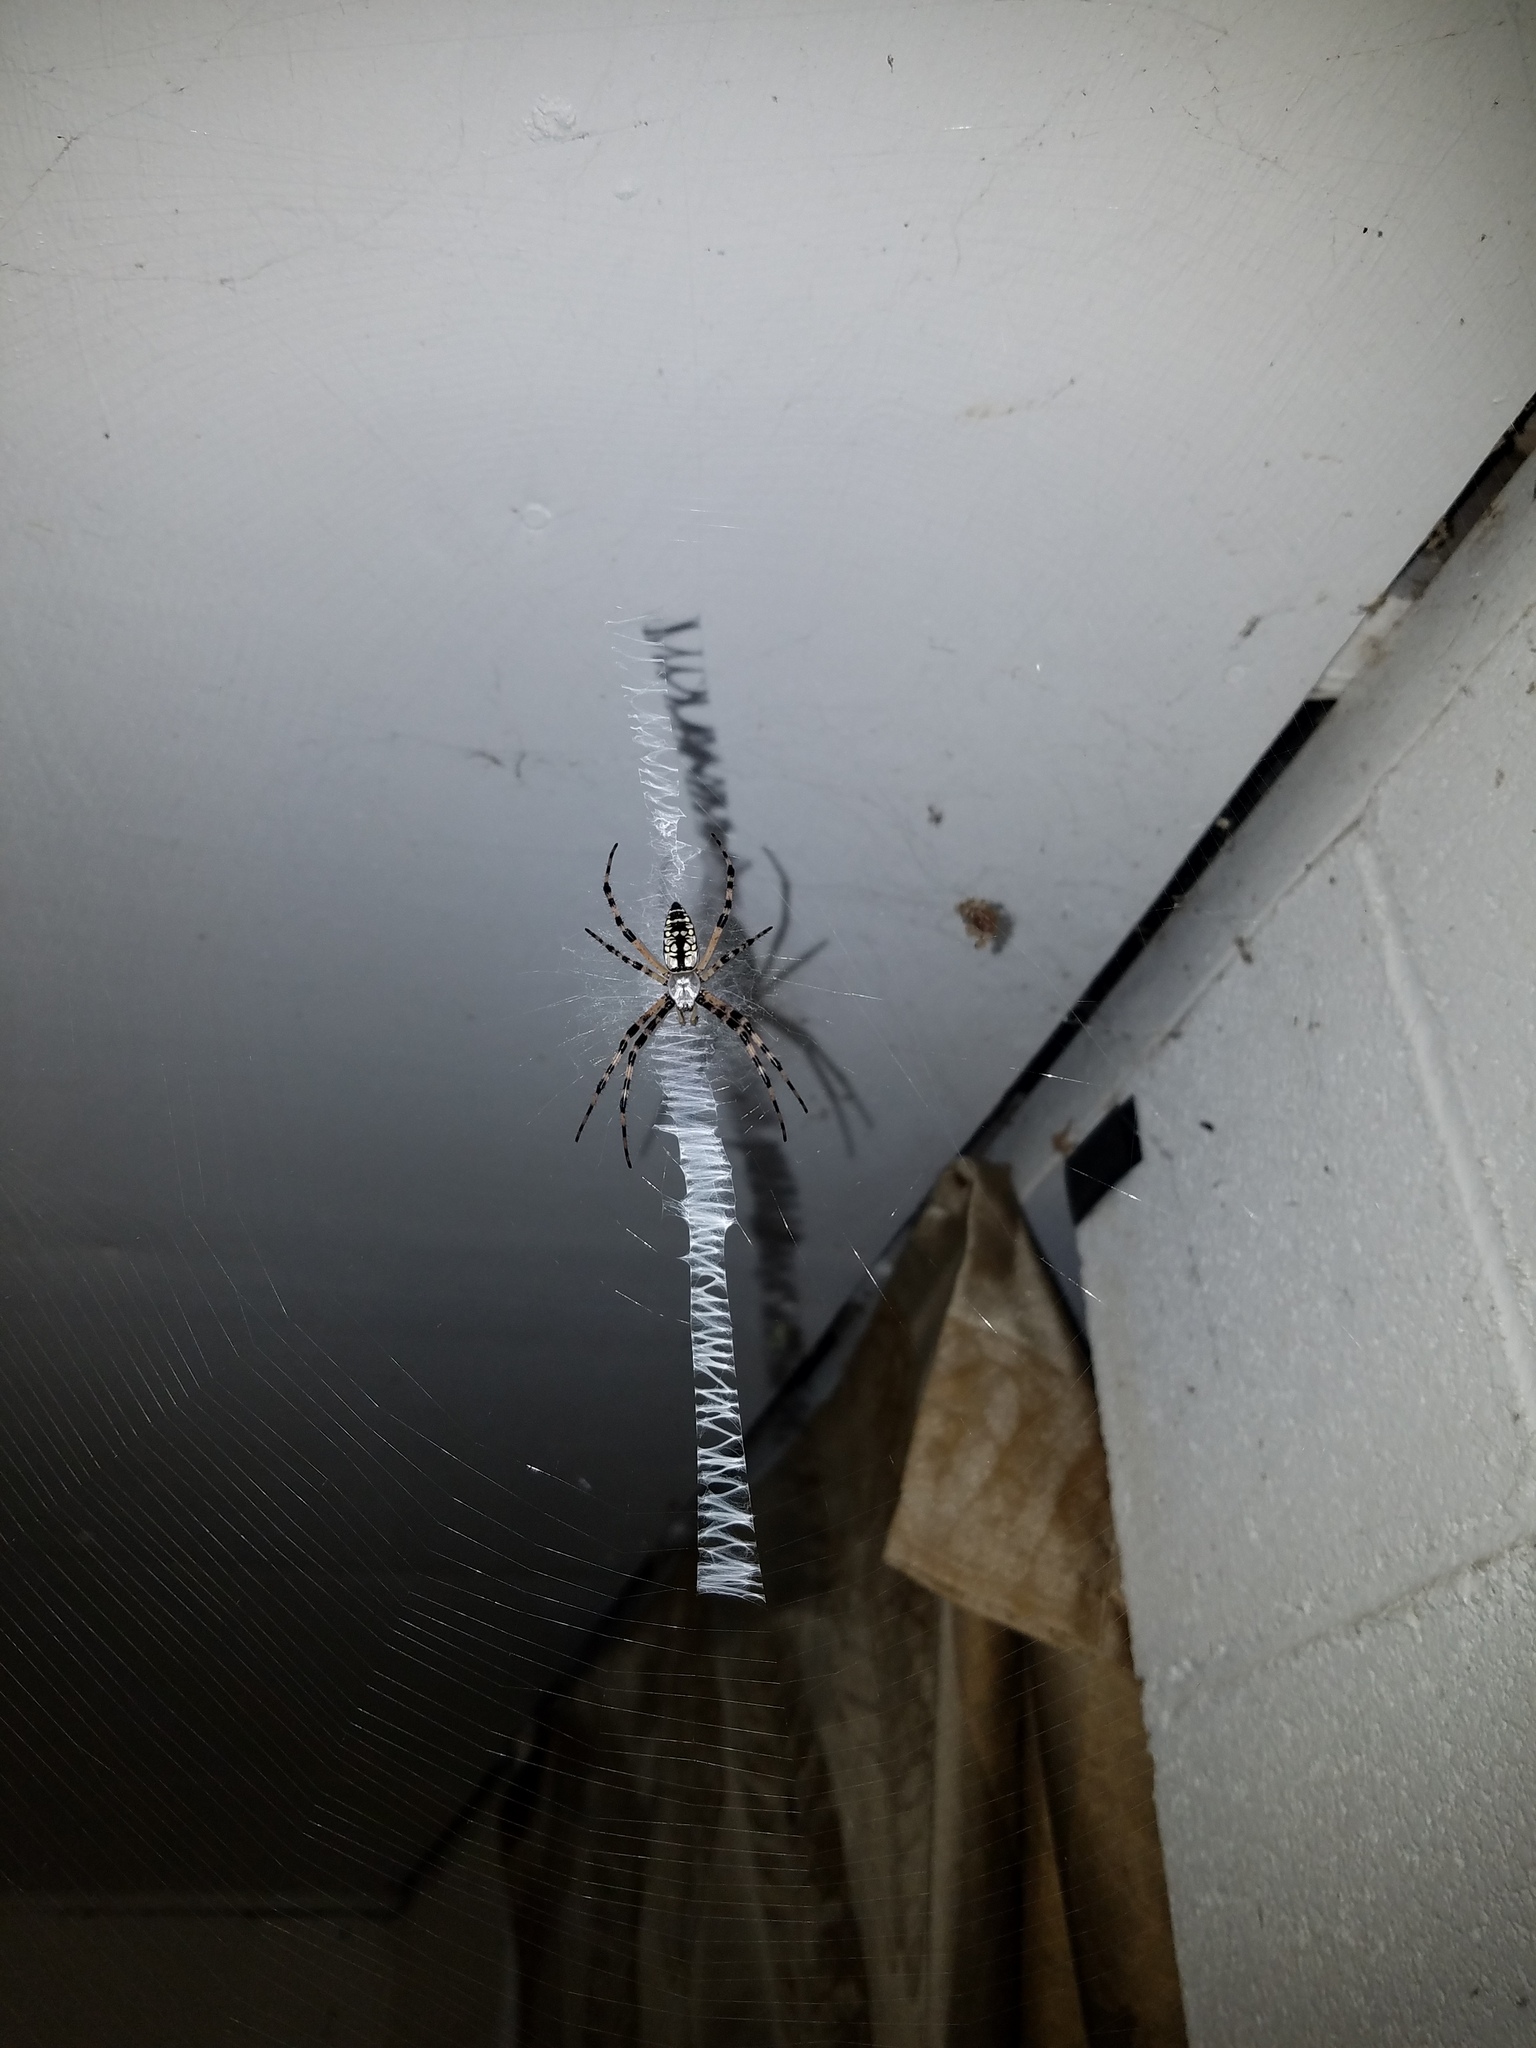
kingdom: Animalia
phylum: Arthropoda
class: Arachnida
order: Araneae
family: Araneidae
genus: Argiope
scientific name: Argiope aurantia
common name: Orb weavers
